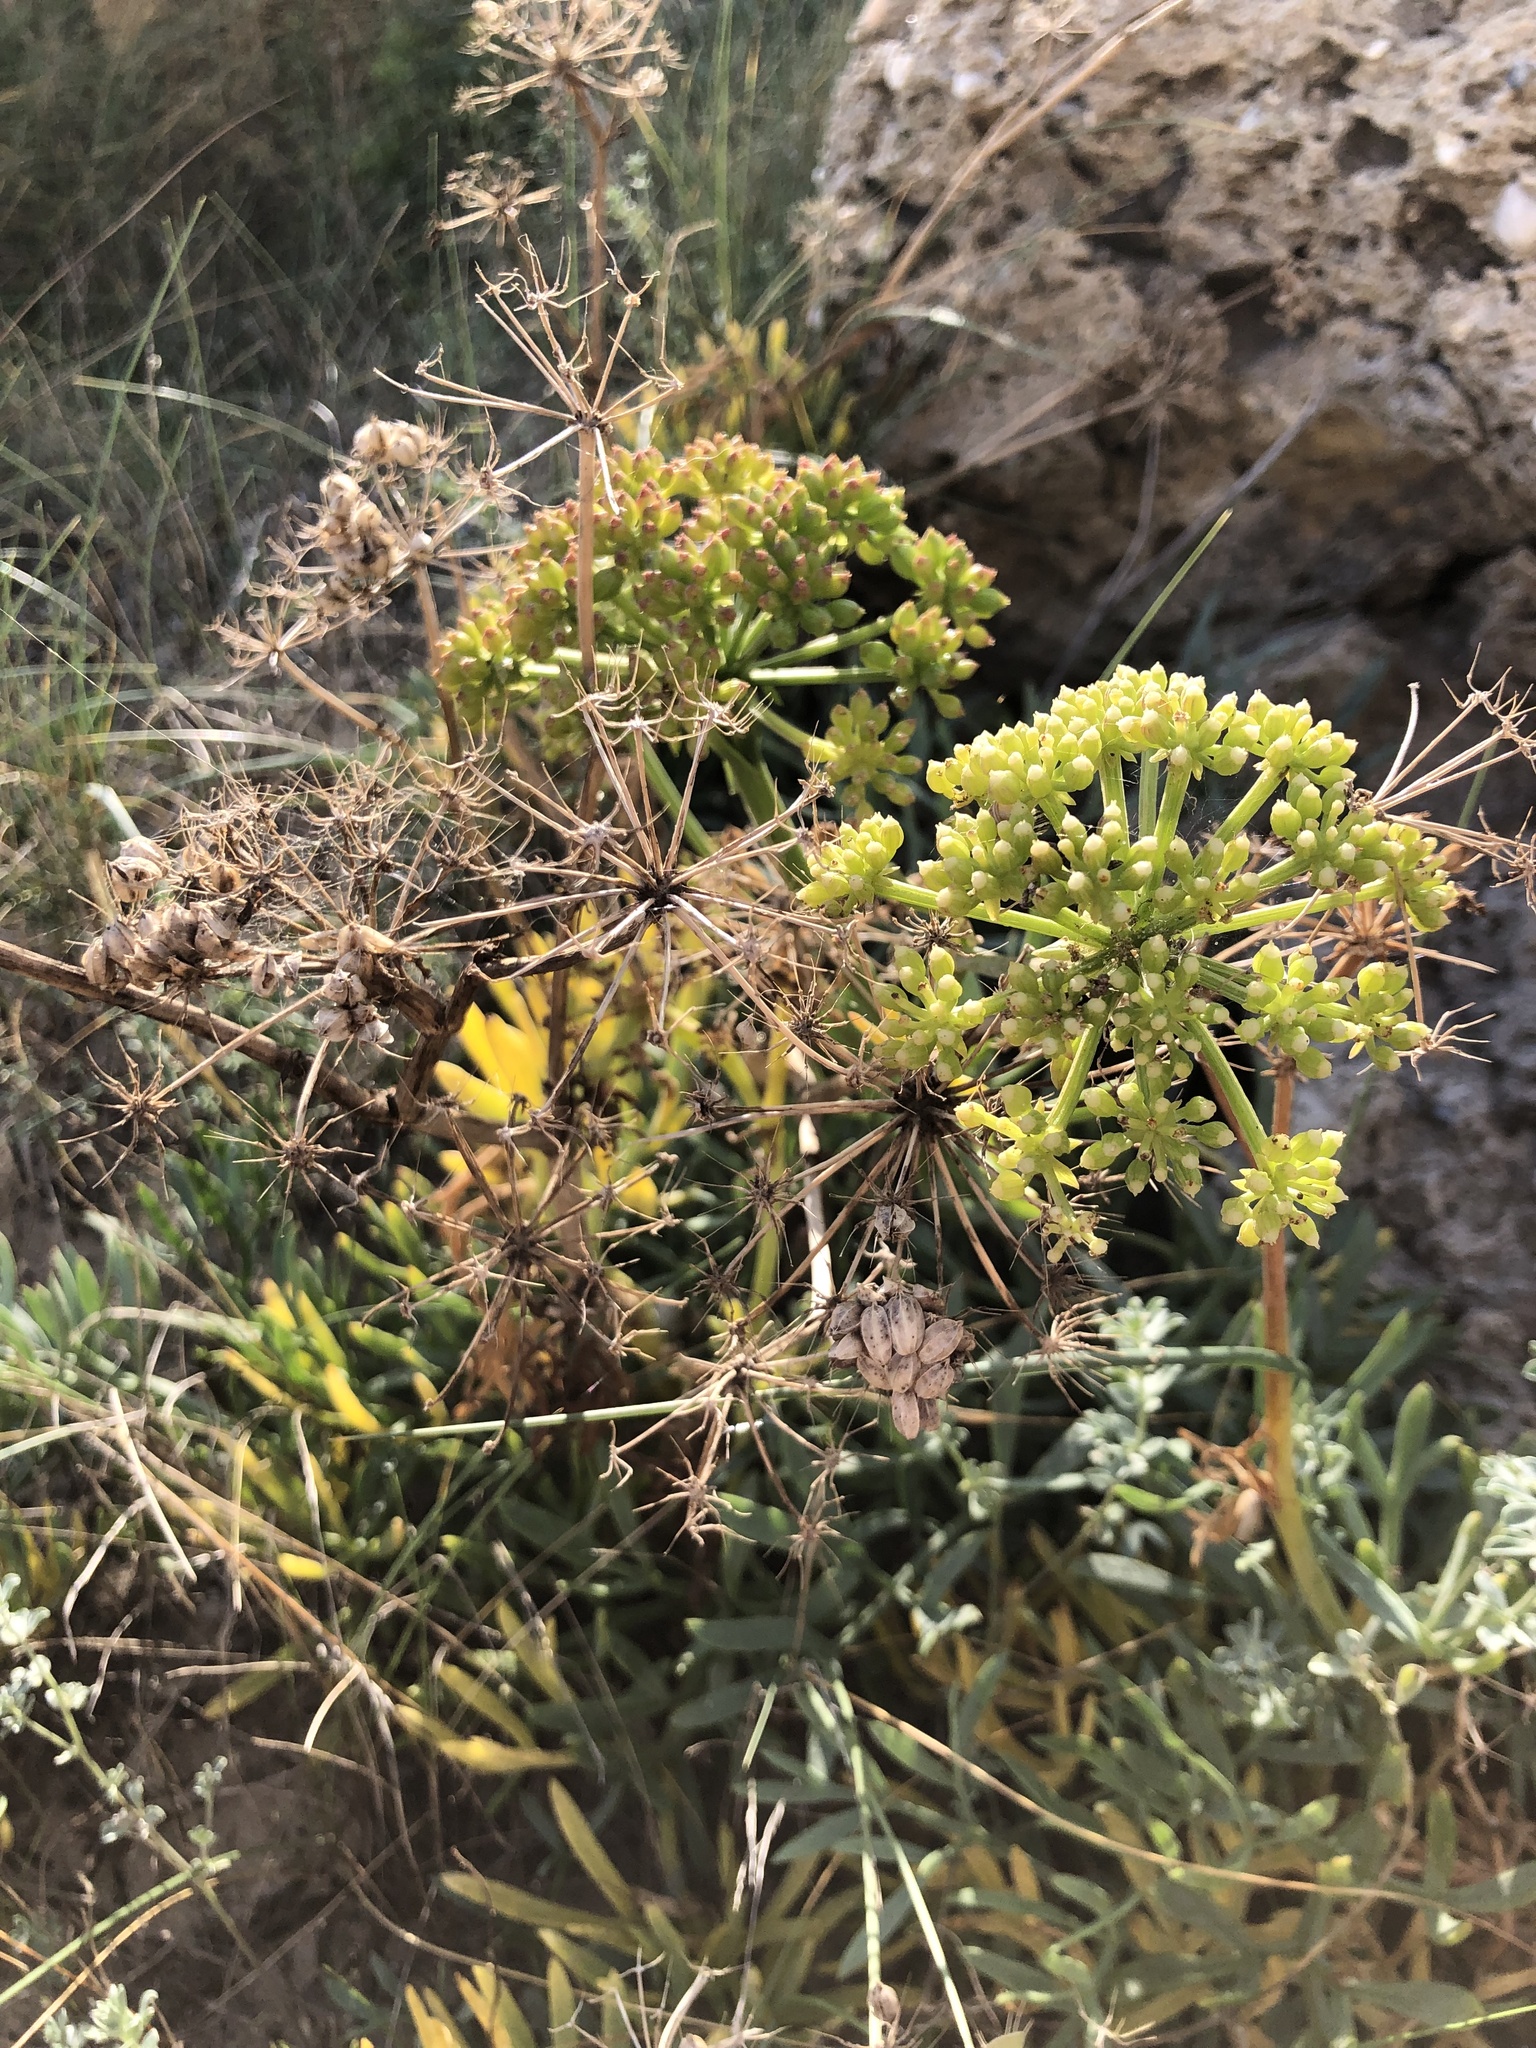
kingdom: Plantae
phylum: Tracheophyta
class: Magnoliopsida
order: Apiales
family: Apiaceae
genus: Crithmum
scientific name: Crithmum maritimum
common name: Rock samphire
